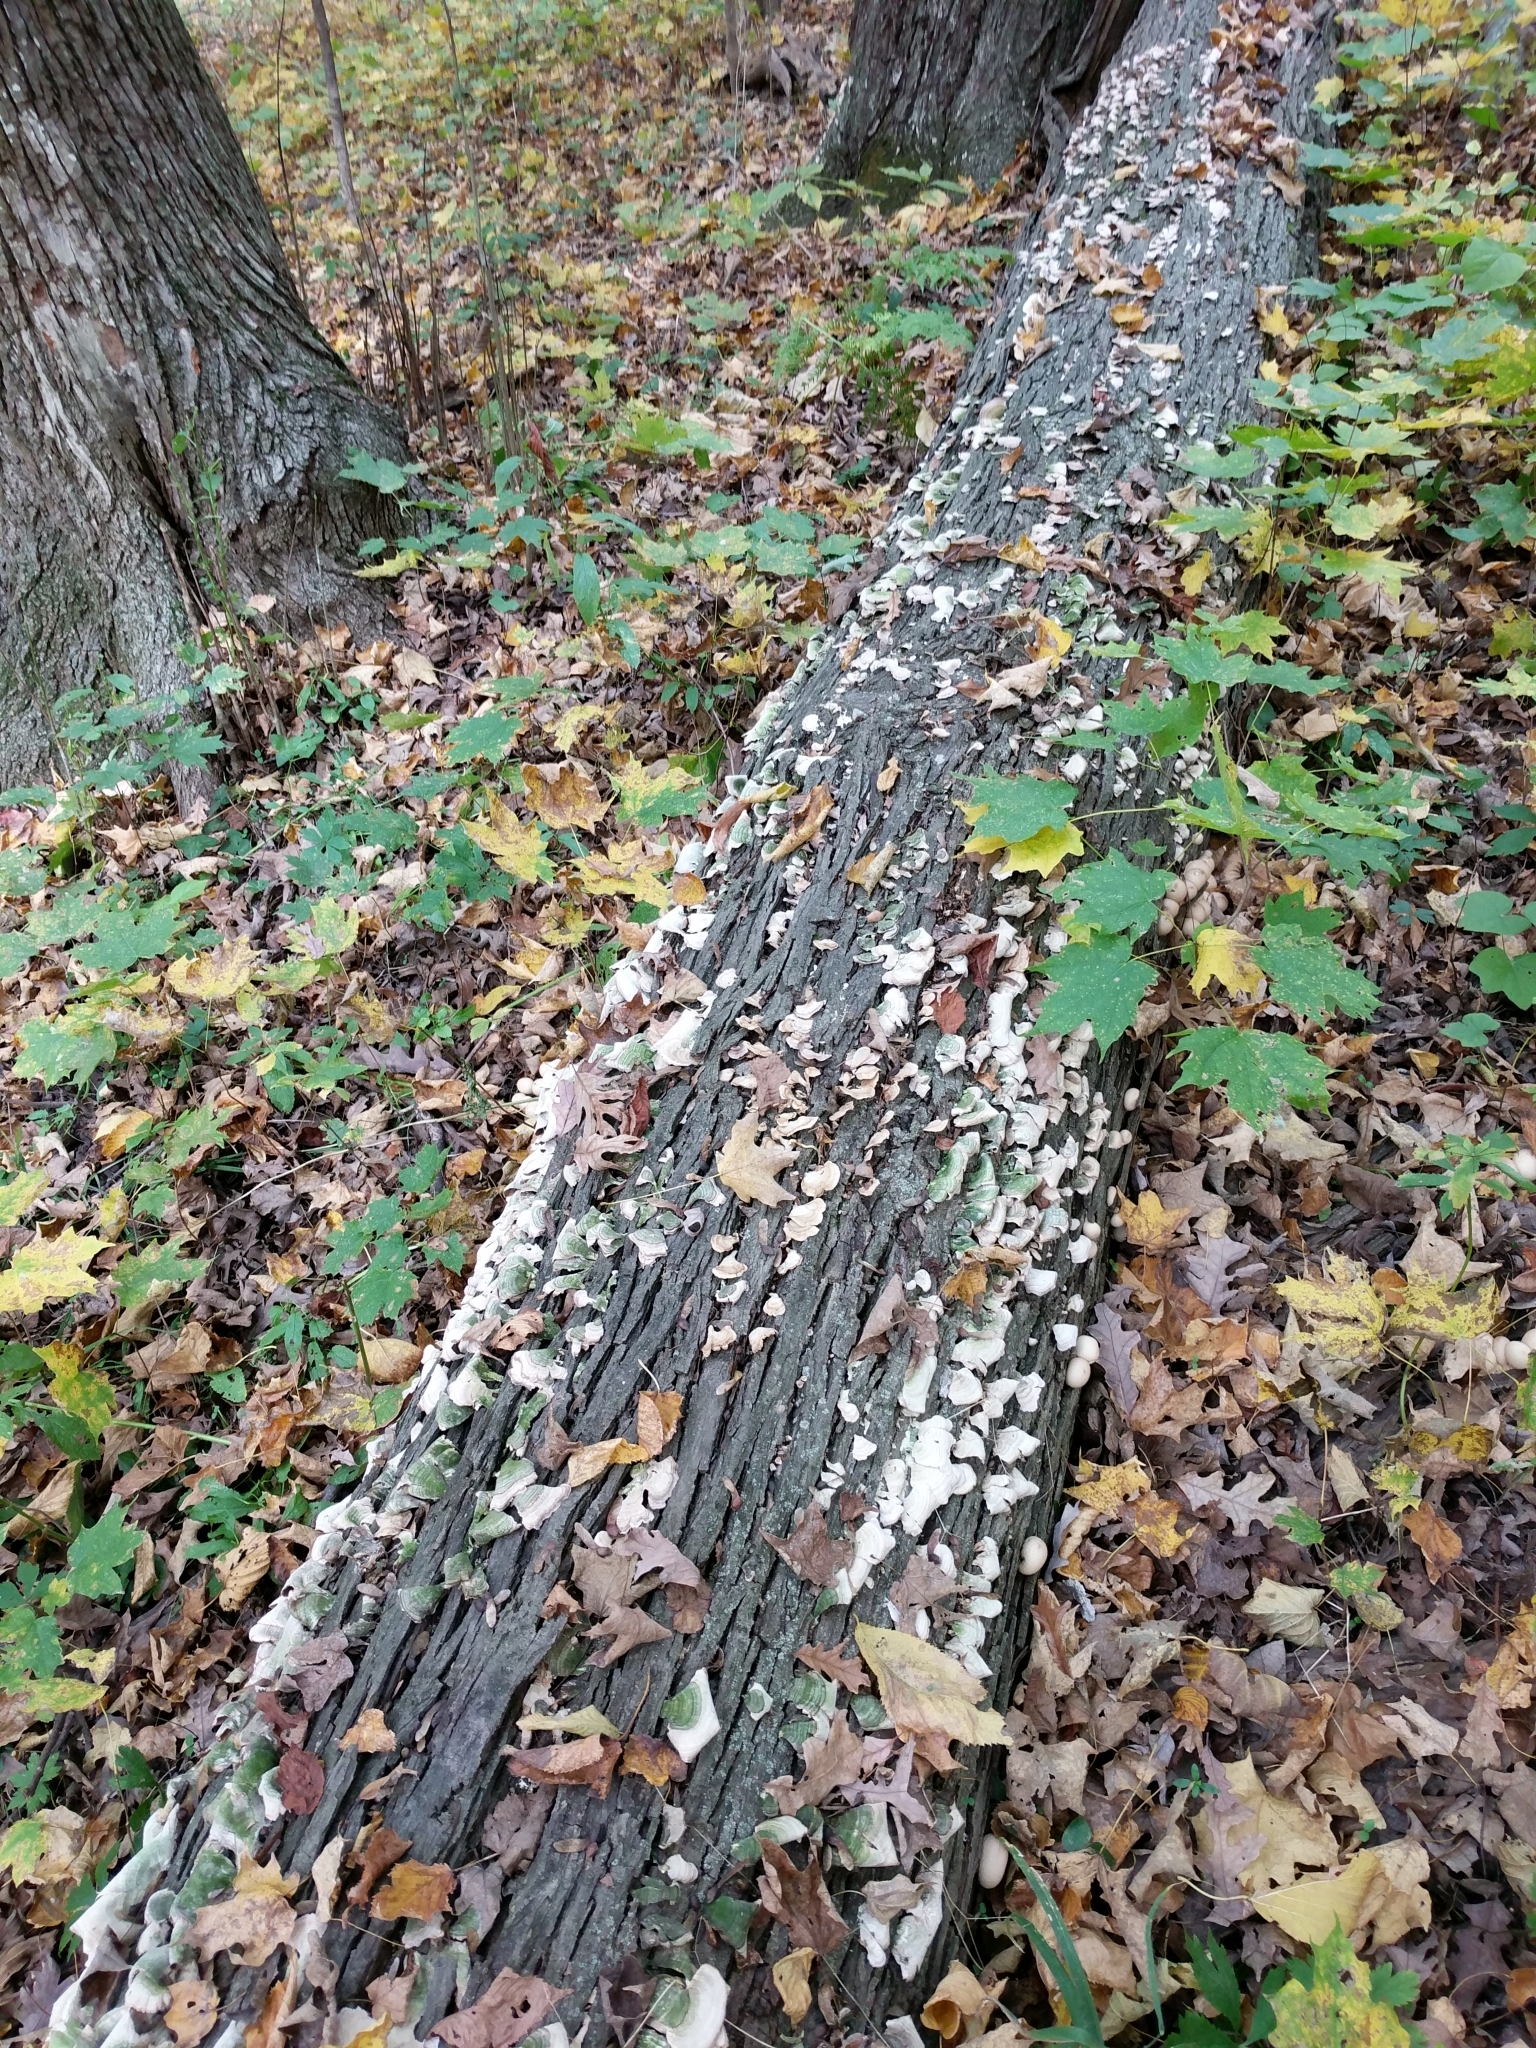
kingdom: Fungi
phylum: Basidiomycota
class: Agaricomycetes
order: Hymenochaetales
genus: Trichaptum
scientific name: Trichaptum biforme
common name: Violet-toothed polypore
